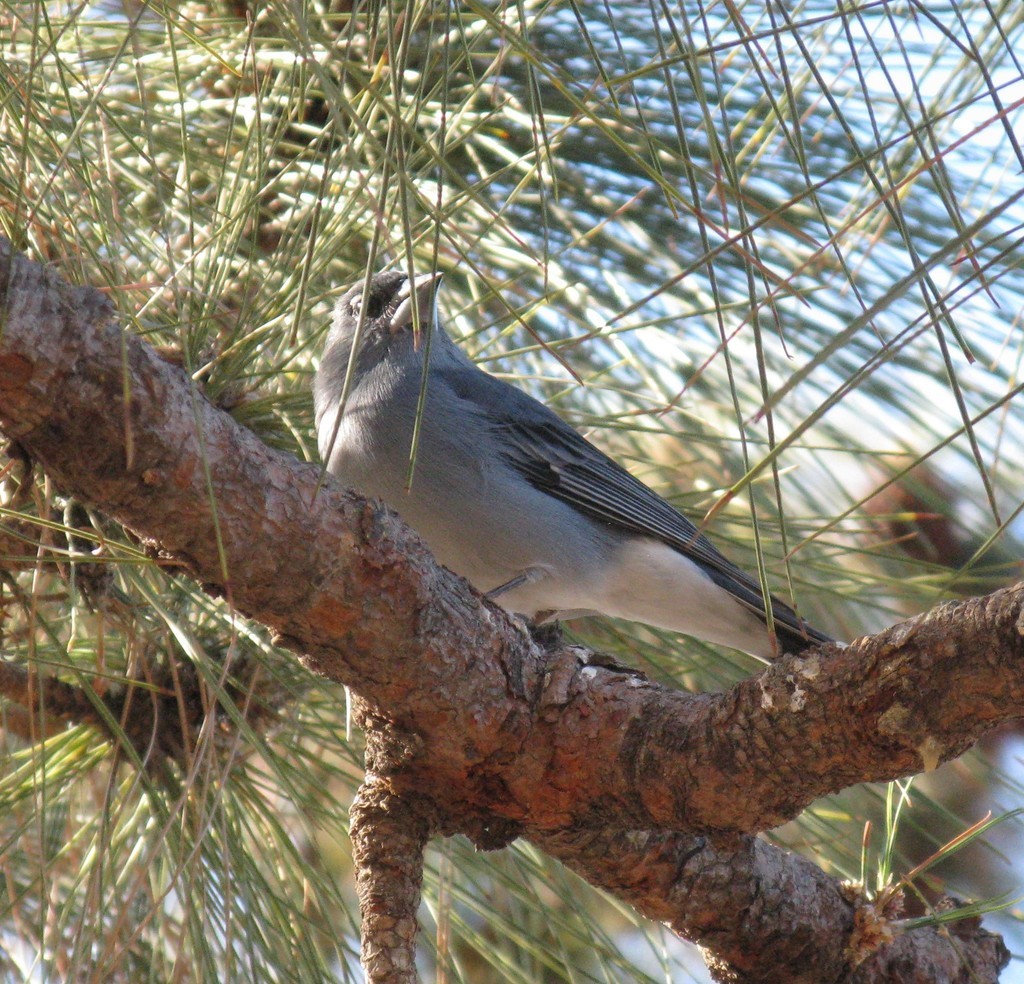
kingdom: Animalia
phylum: Chordata
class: Aves
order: Passeriformes
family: Fringillidae
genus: Fringilla
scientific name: Fringilla teydea
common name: Blue chaffinch
